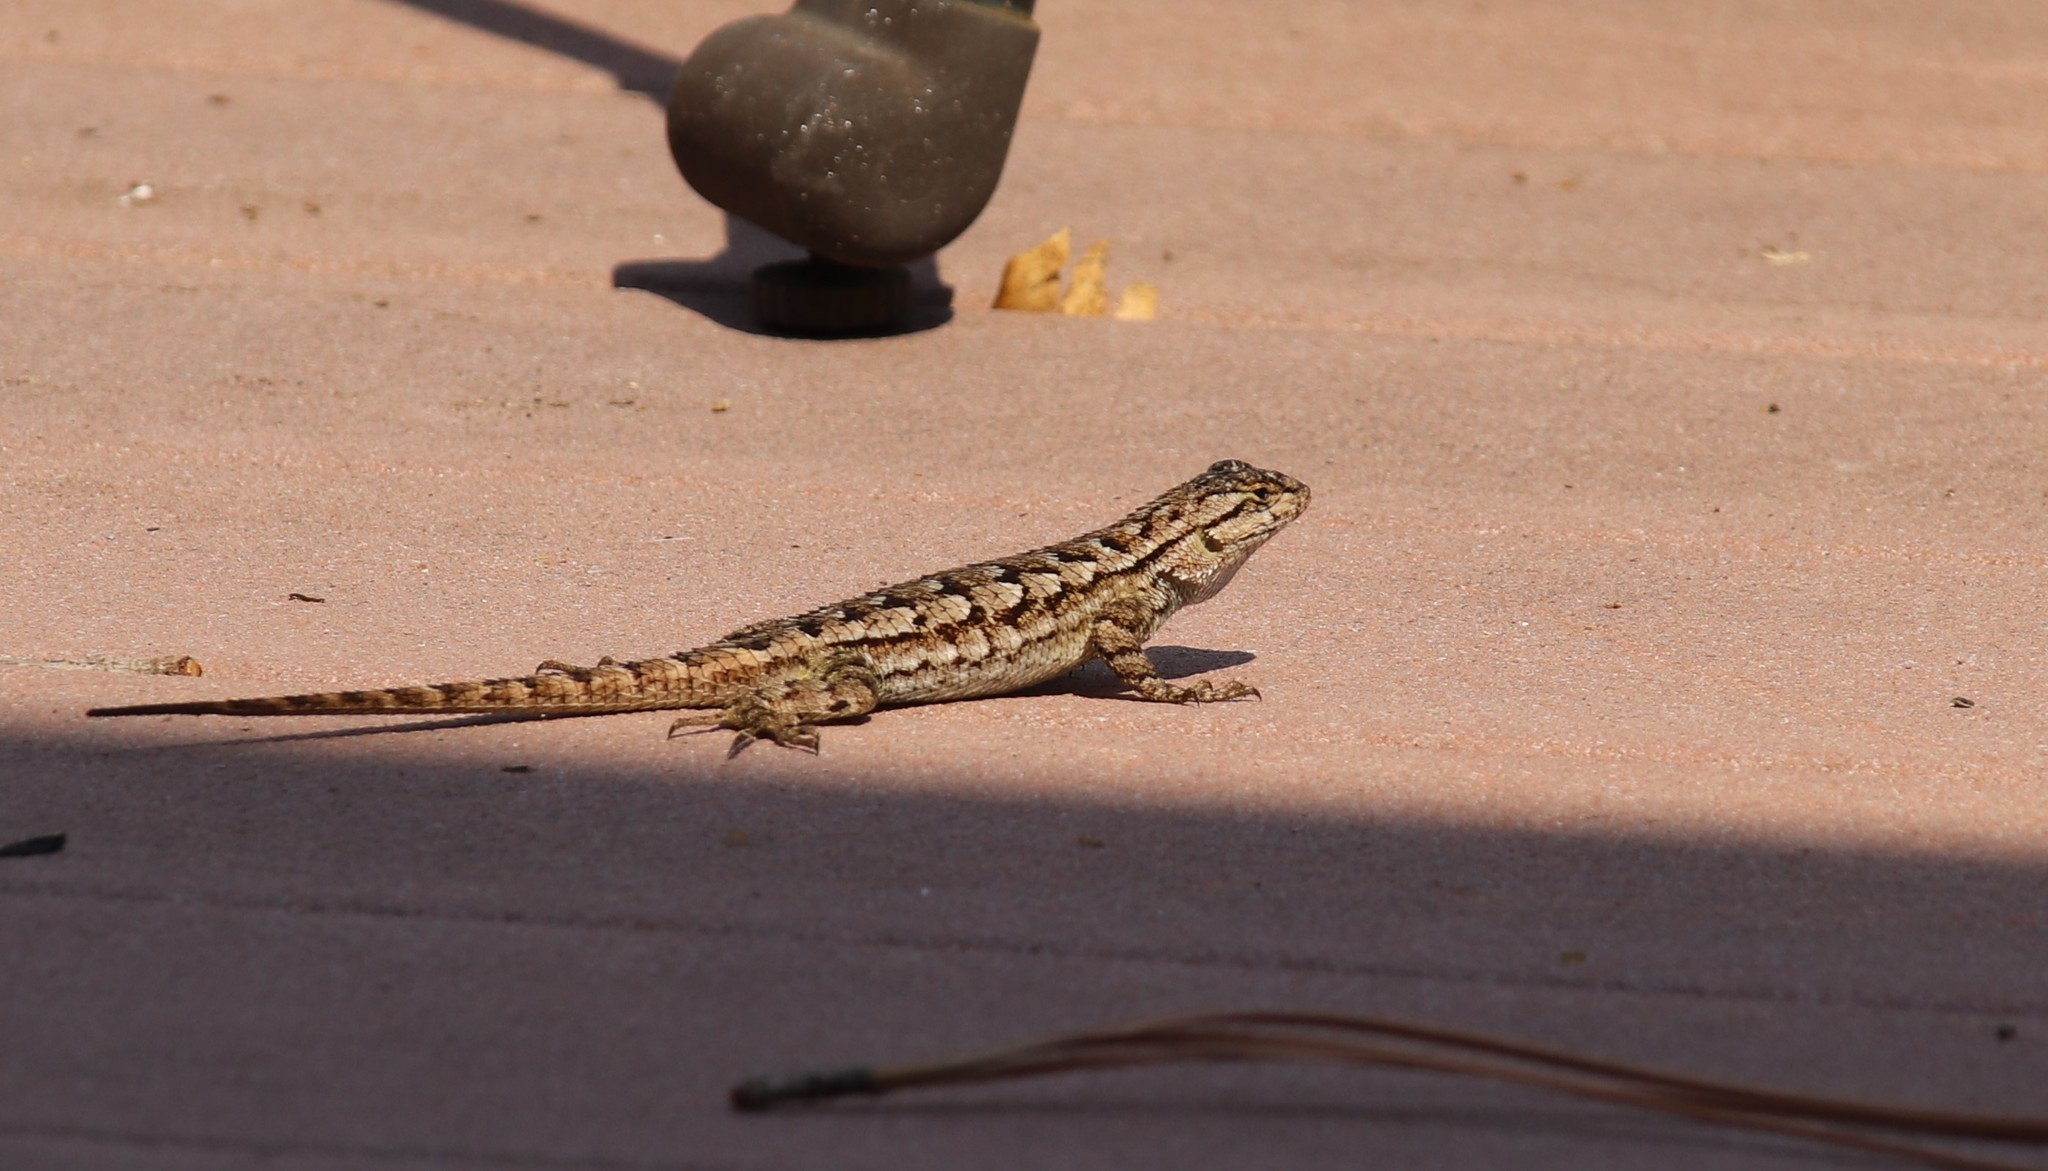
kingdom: Animalia
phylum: Chordata
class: Squamata
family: Phrynosomatidae
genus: Sceloporus
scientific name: Sceloporus occidentalis
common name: Western fence lizard
